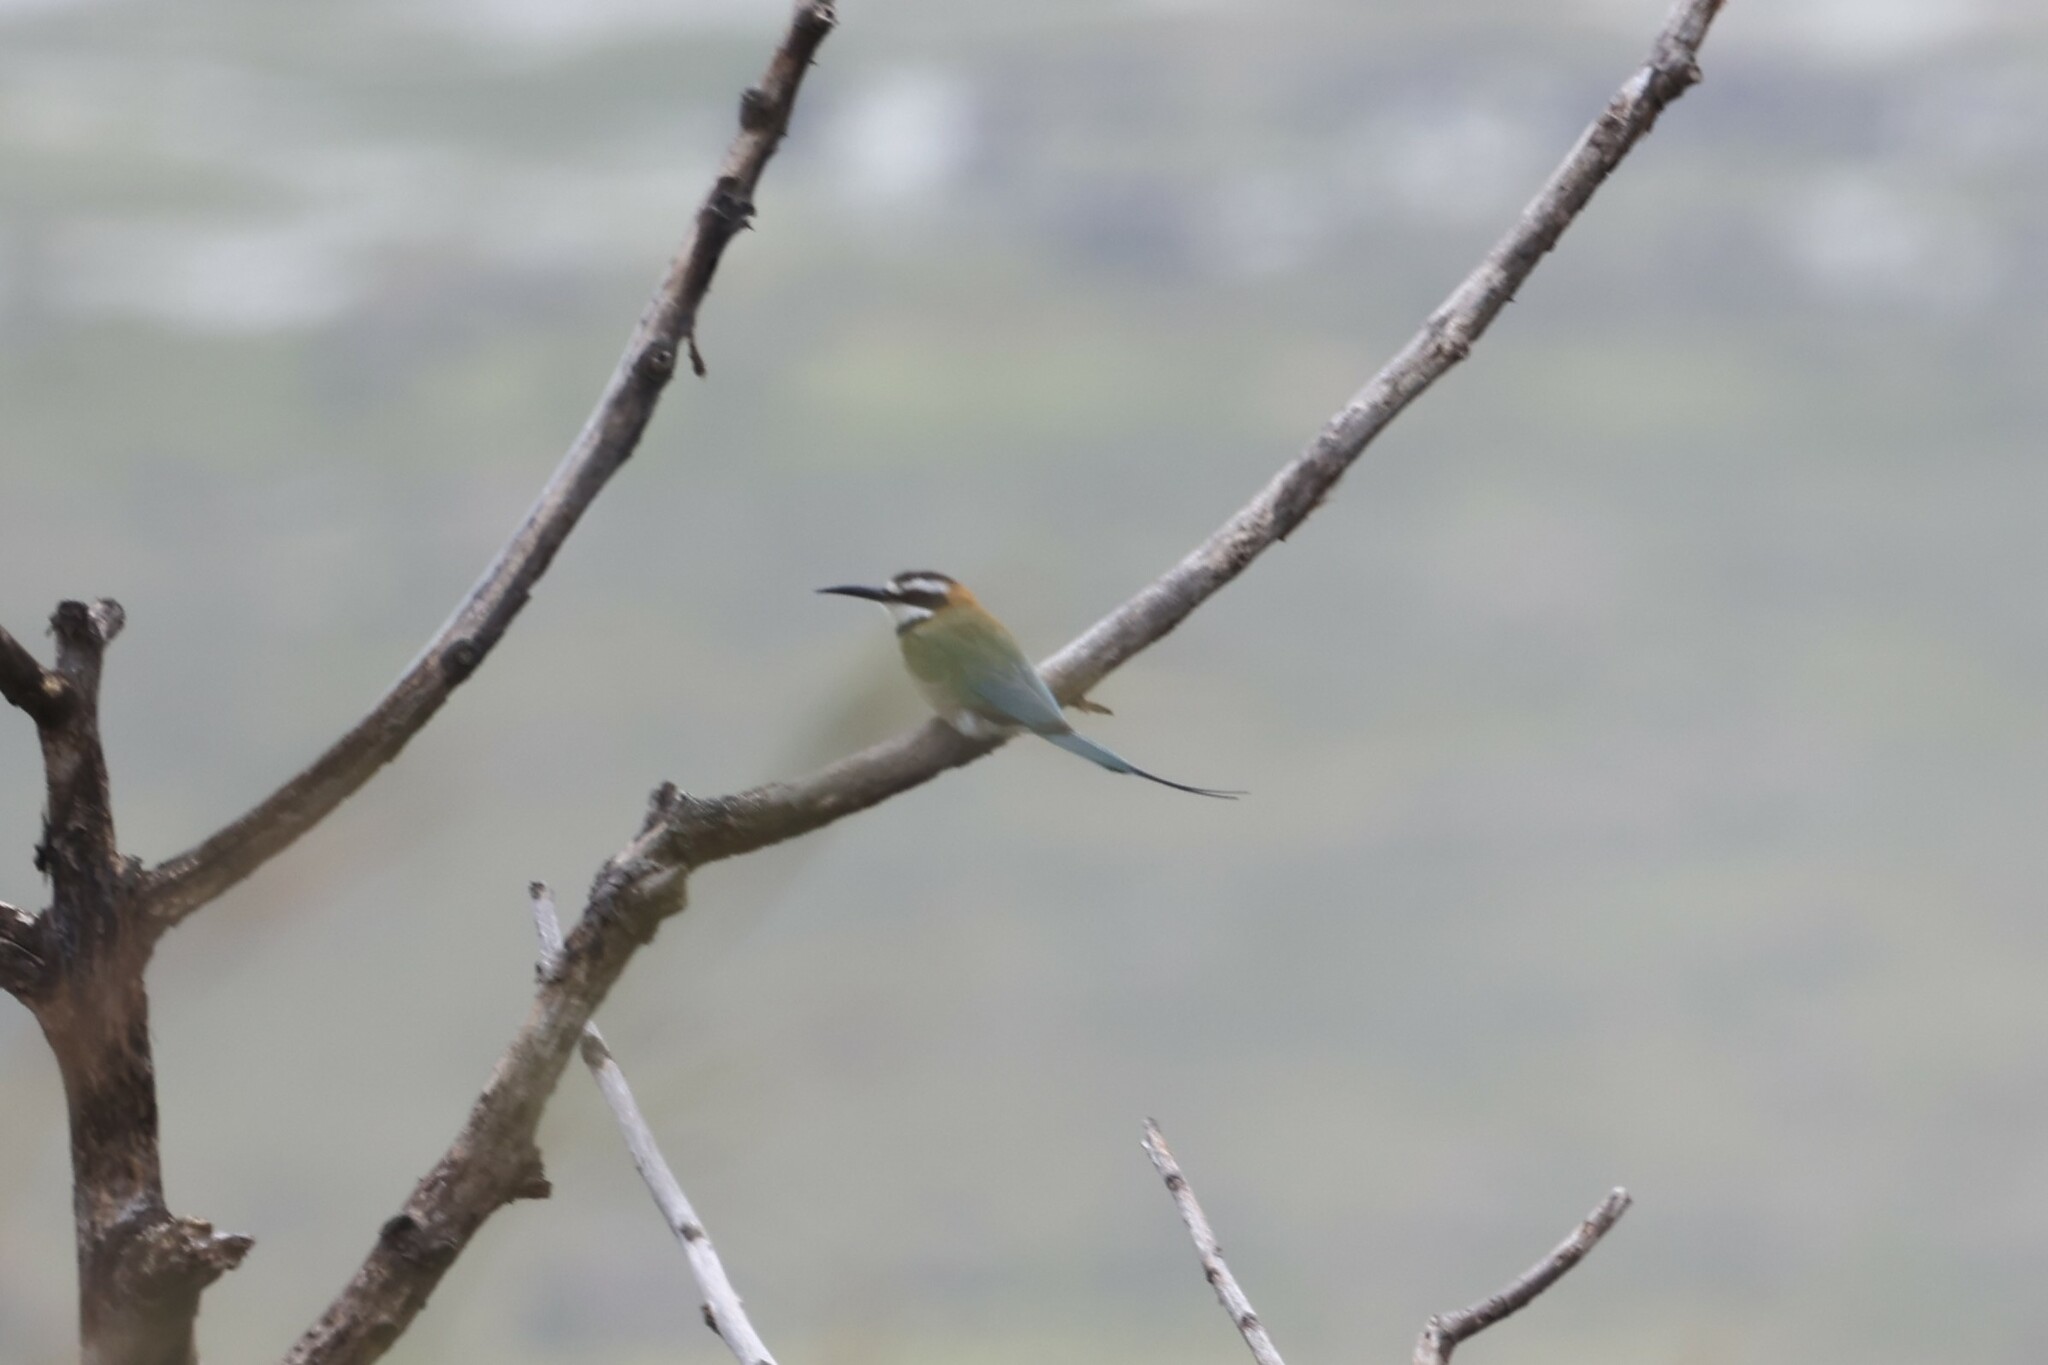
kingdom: Animalia
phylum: Chordata
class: Aves
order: Coraciiformes
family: Meropidae
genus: Merops
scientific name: Merops albicollis
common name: White-throated bee-eater
